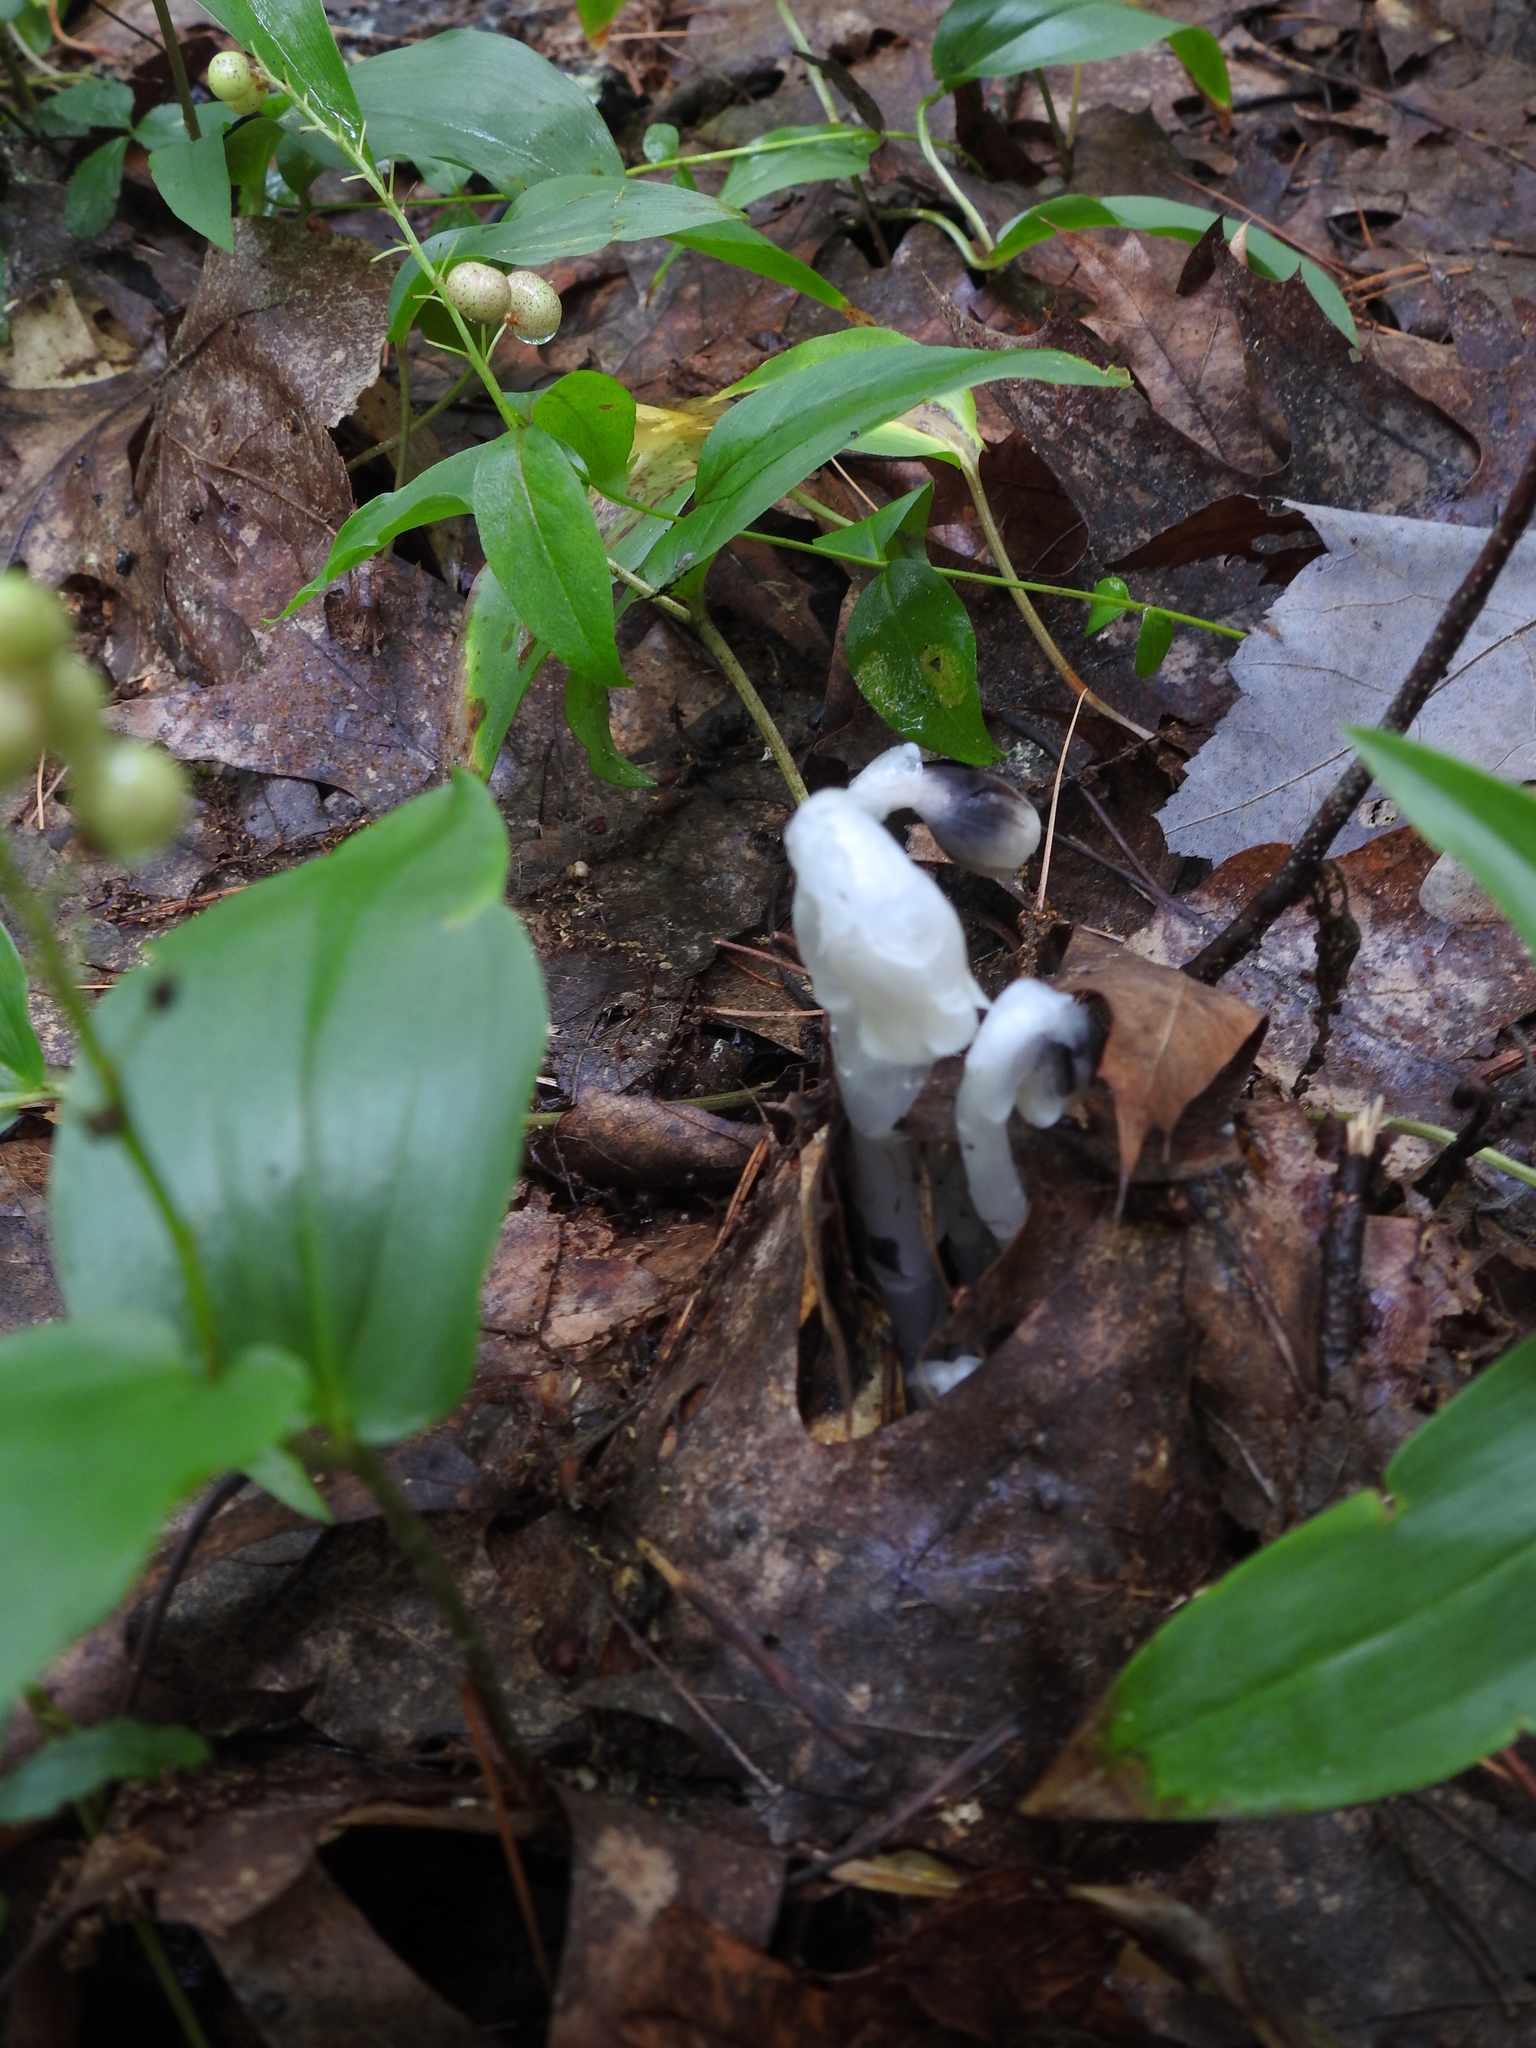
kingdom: Plantae
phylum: Tracheophyta
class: Magnoliopsida
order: Ericales
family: Ericaceae
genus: Monotropa
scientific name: Monotropa uniflora
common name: Convulsion root
